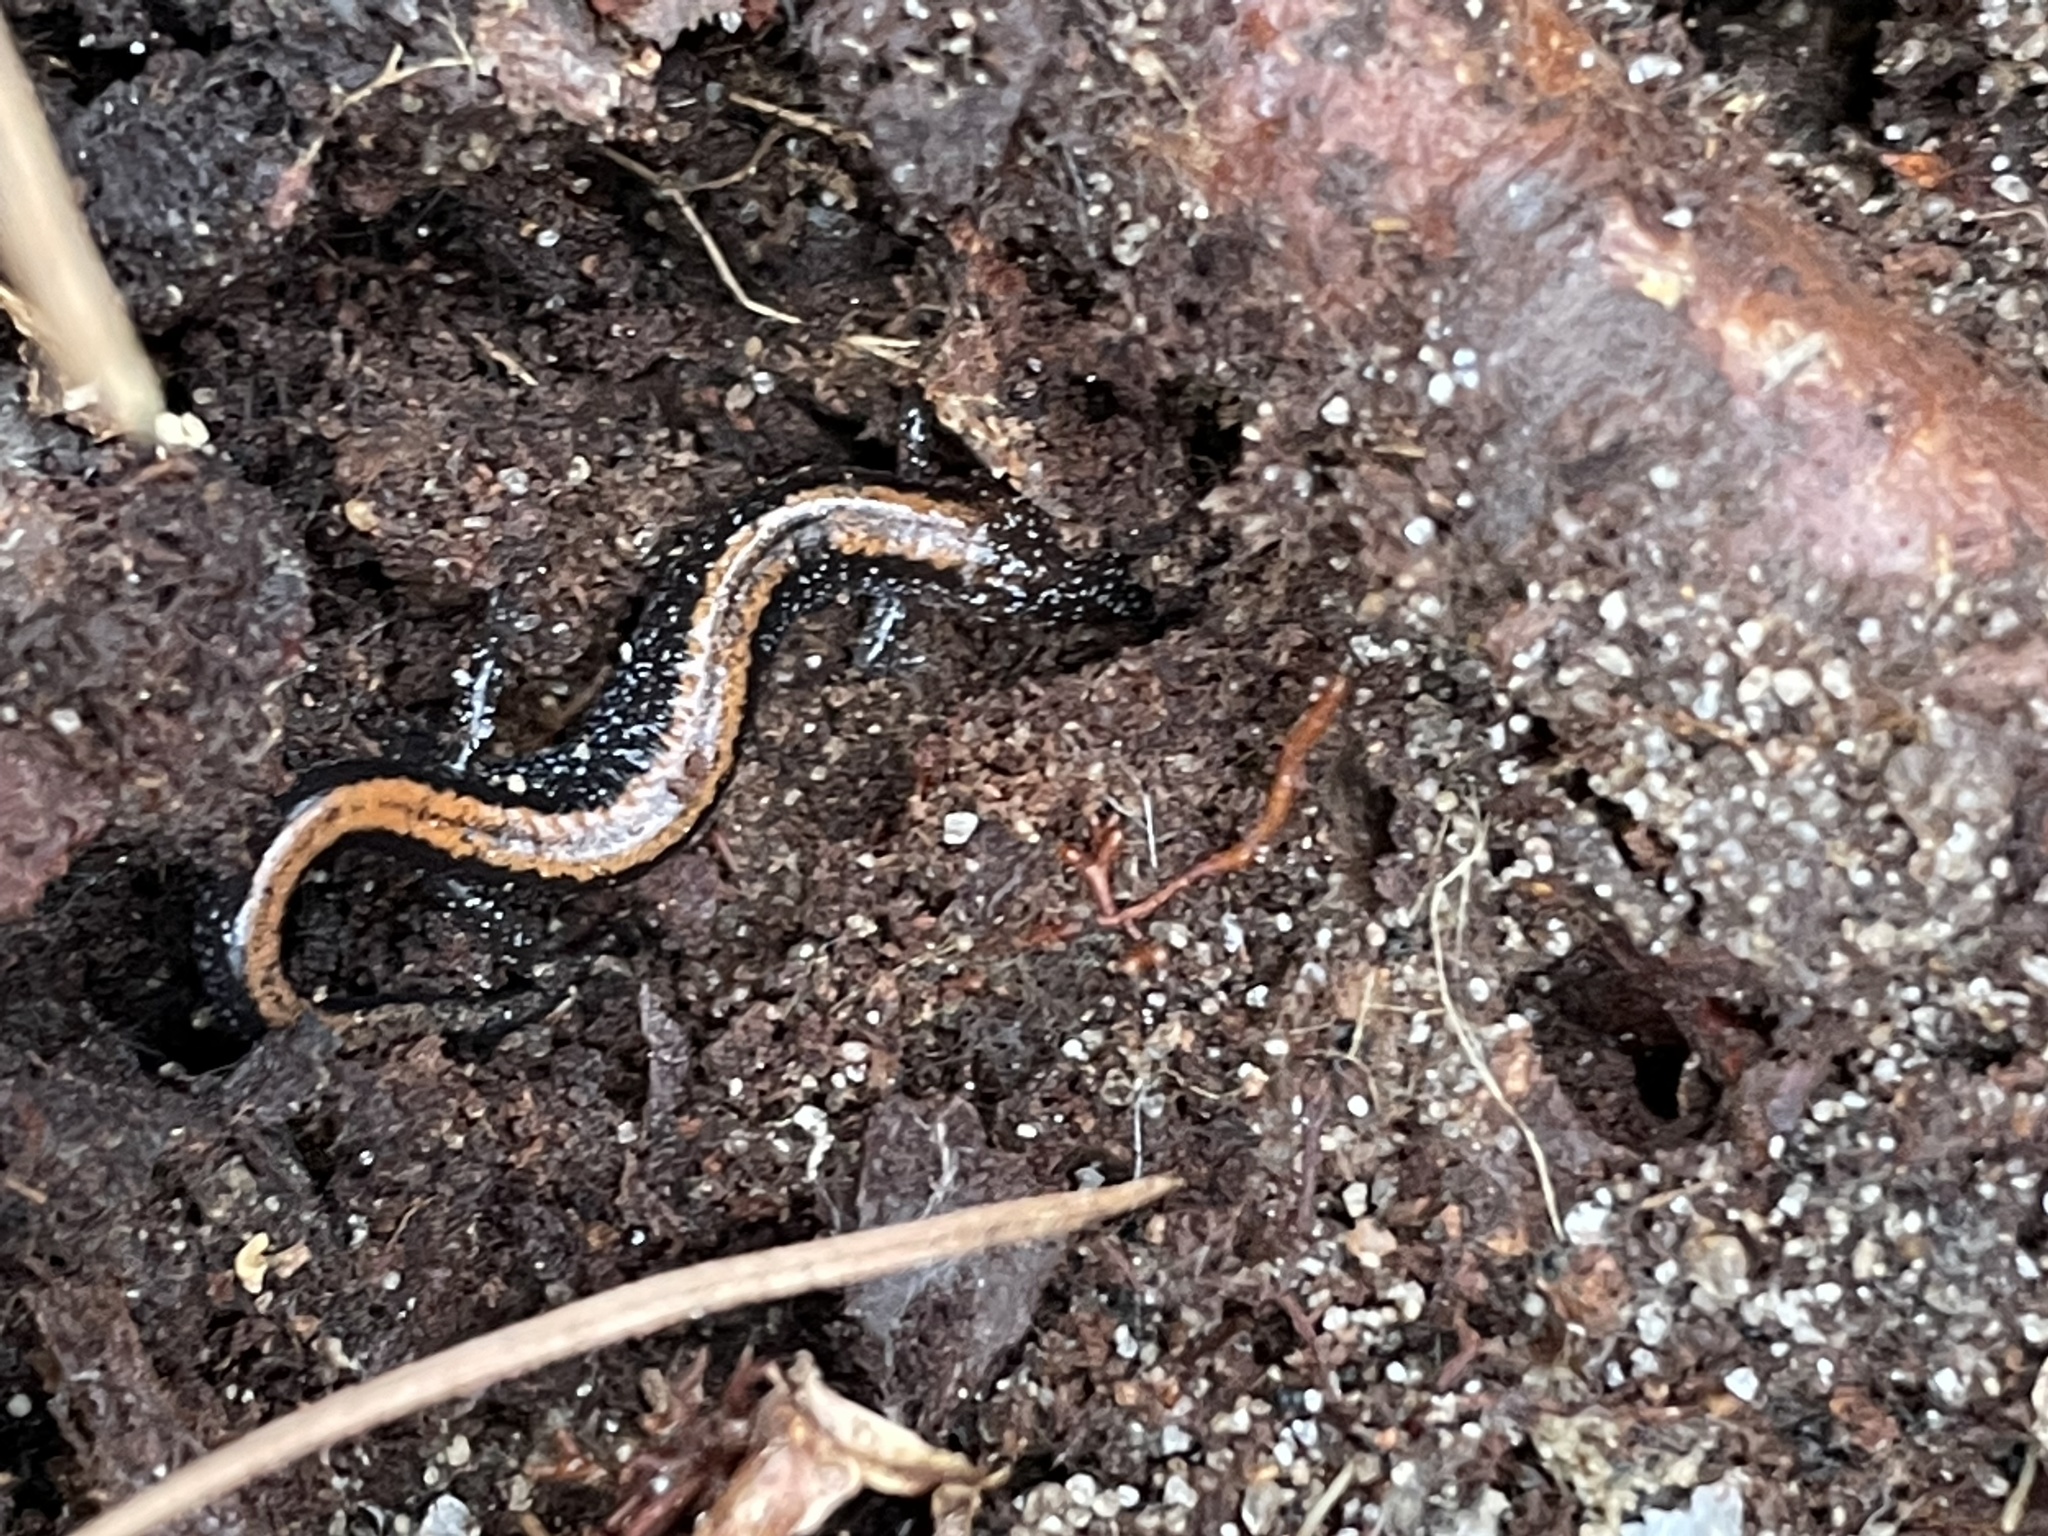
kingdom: Animalia
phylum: Chordata
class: Amphibia
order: Caudata
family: Plethodontidae
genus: Plethodon
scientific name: Plethodon cinereus
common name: Redback salamander
